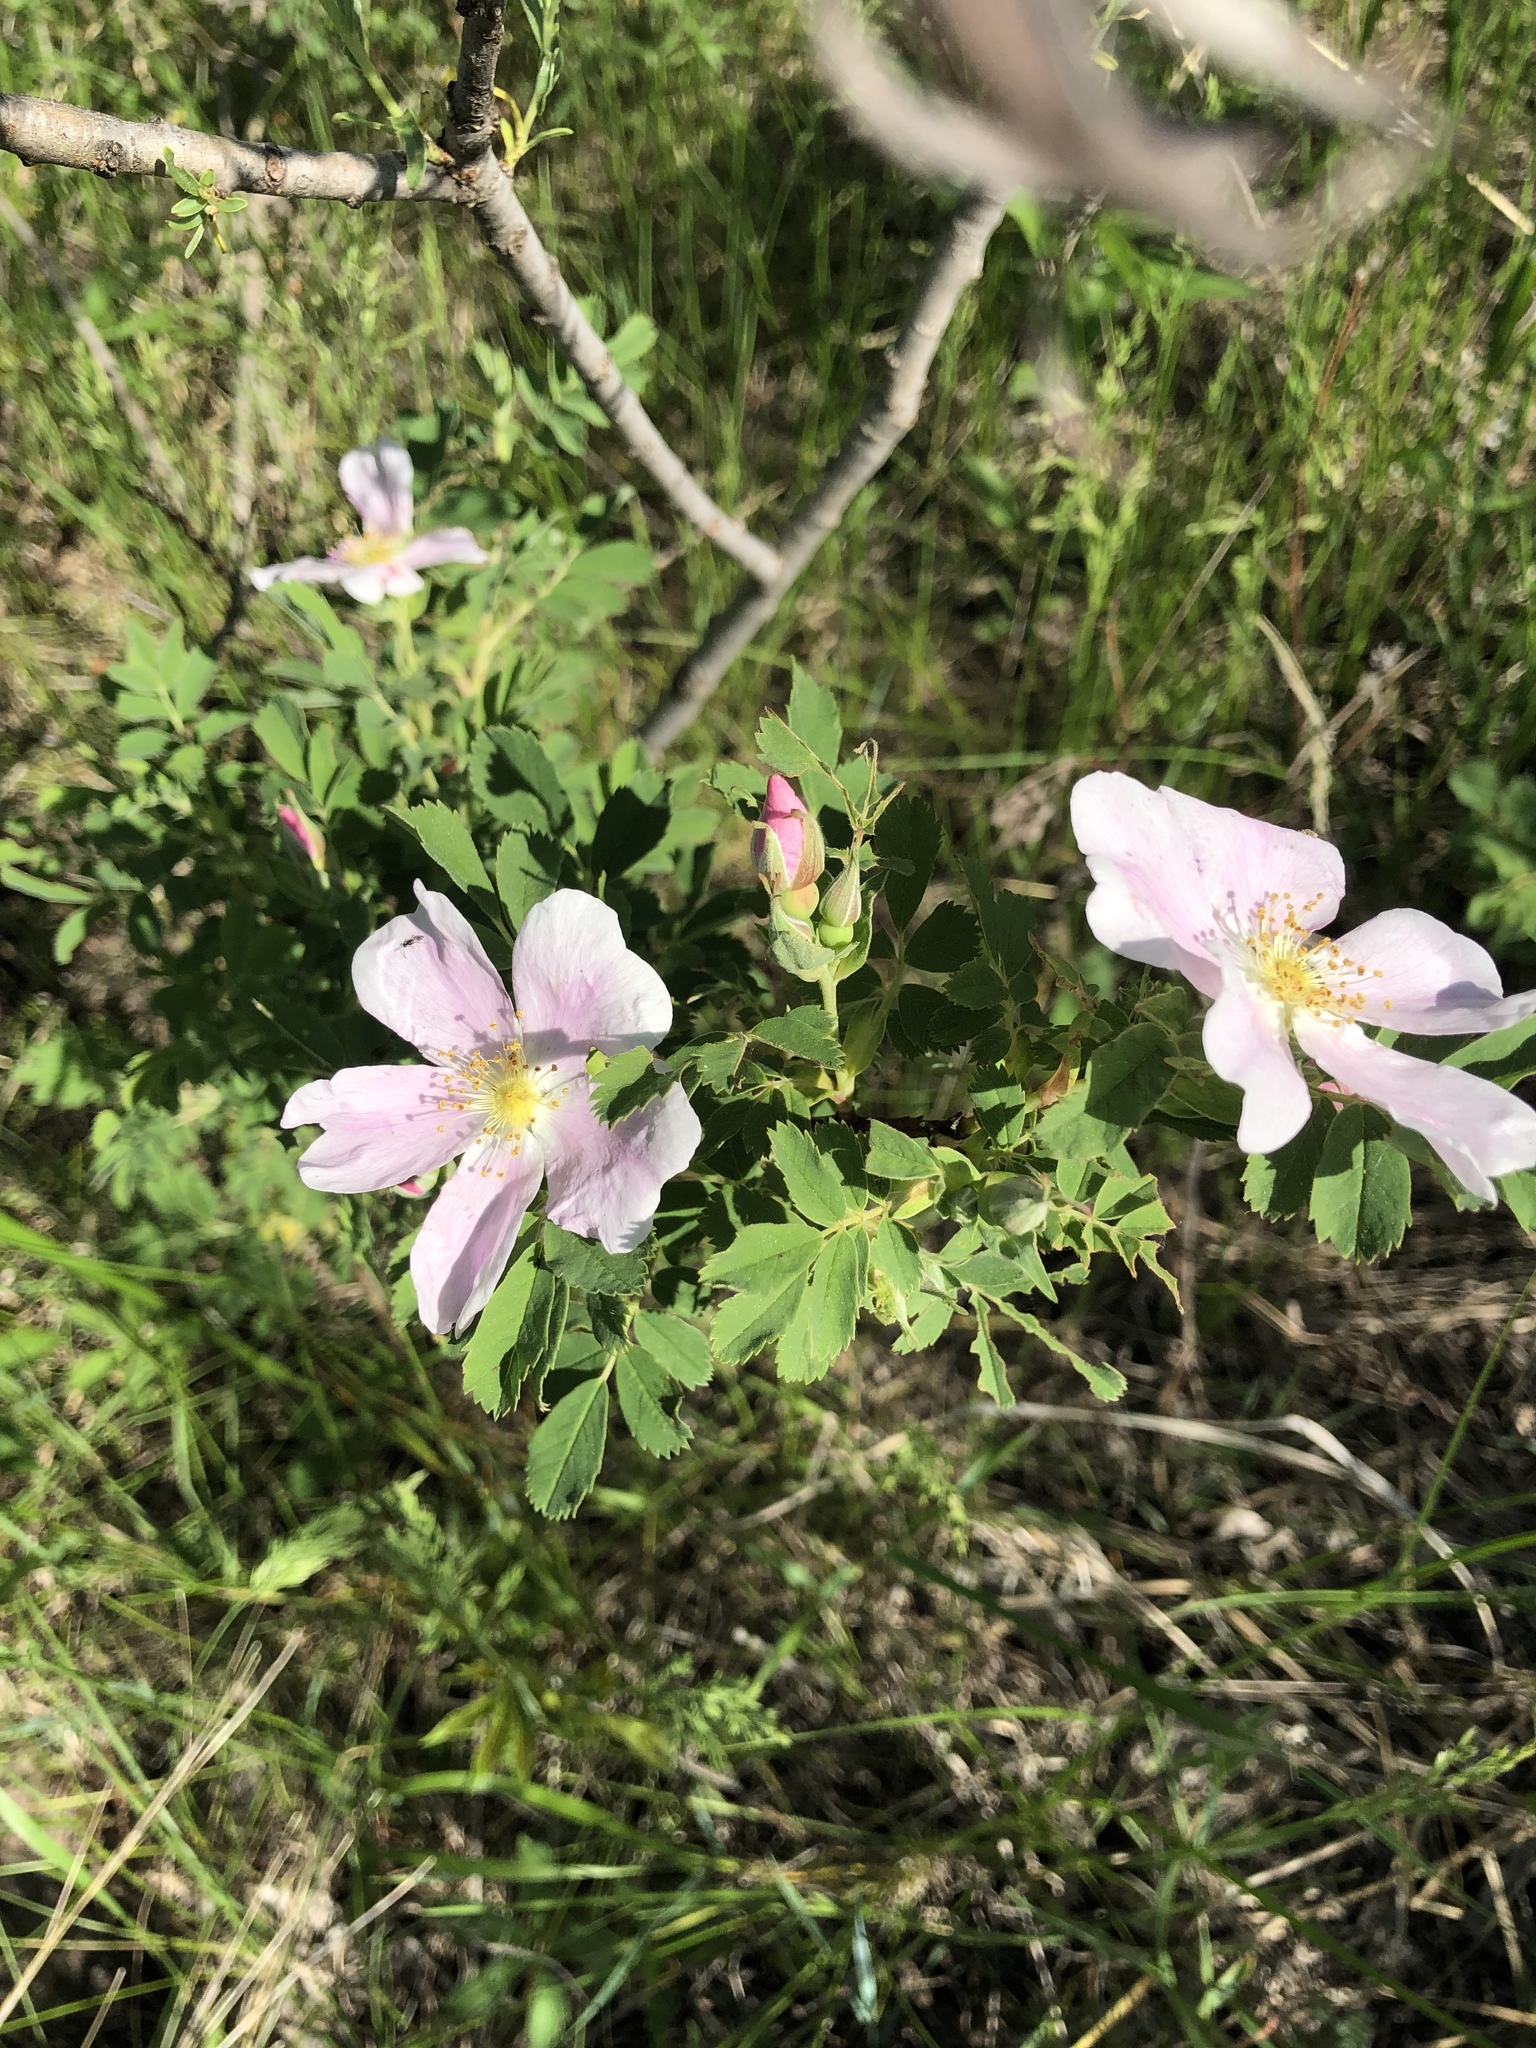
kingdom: Plantae
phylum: Tracheophyta
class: Magnoliopsida
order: Rosales
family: Rosaceae
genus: Rosa
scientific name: Rosa arkansana
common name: Prairie rose
